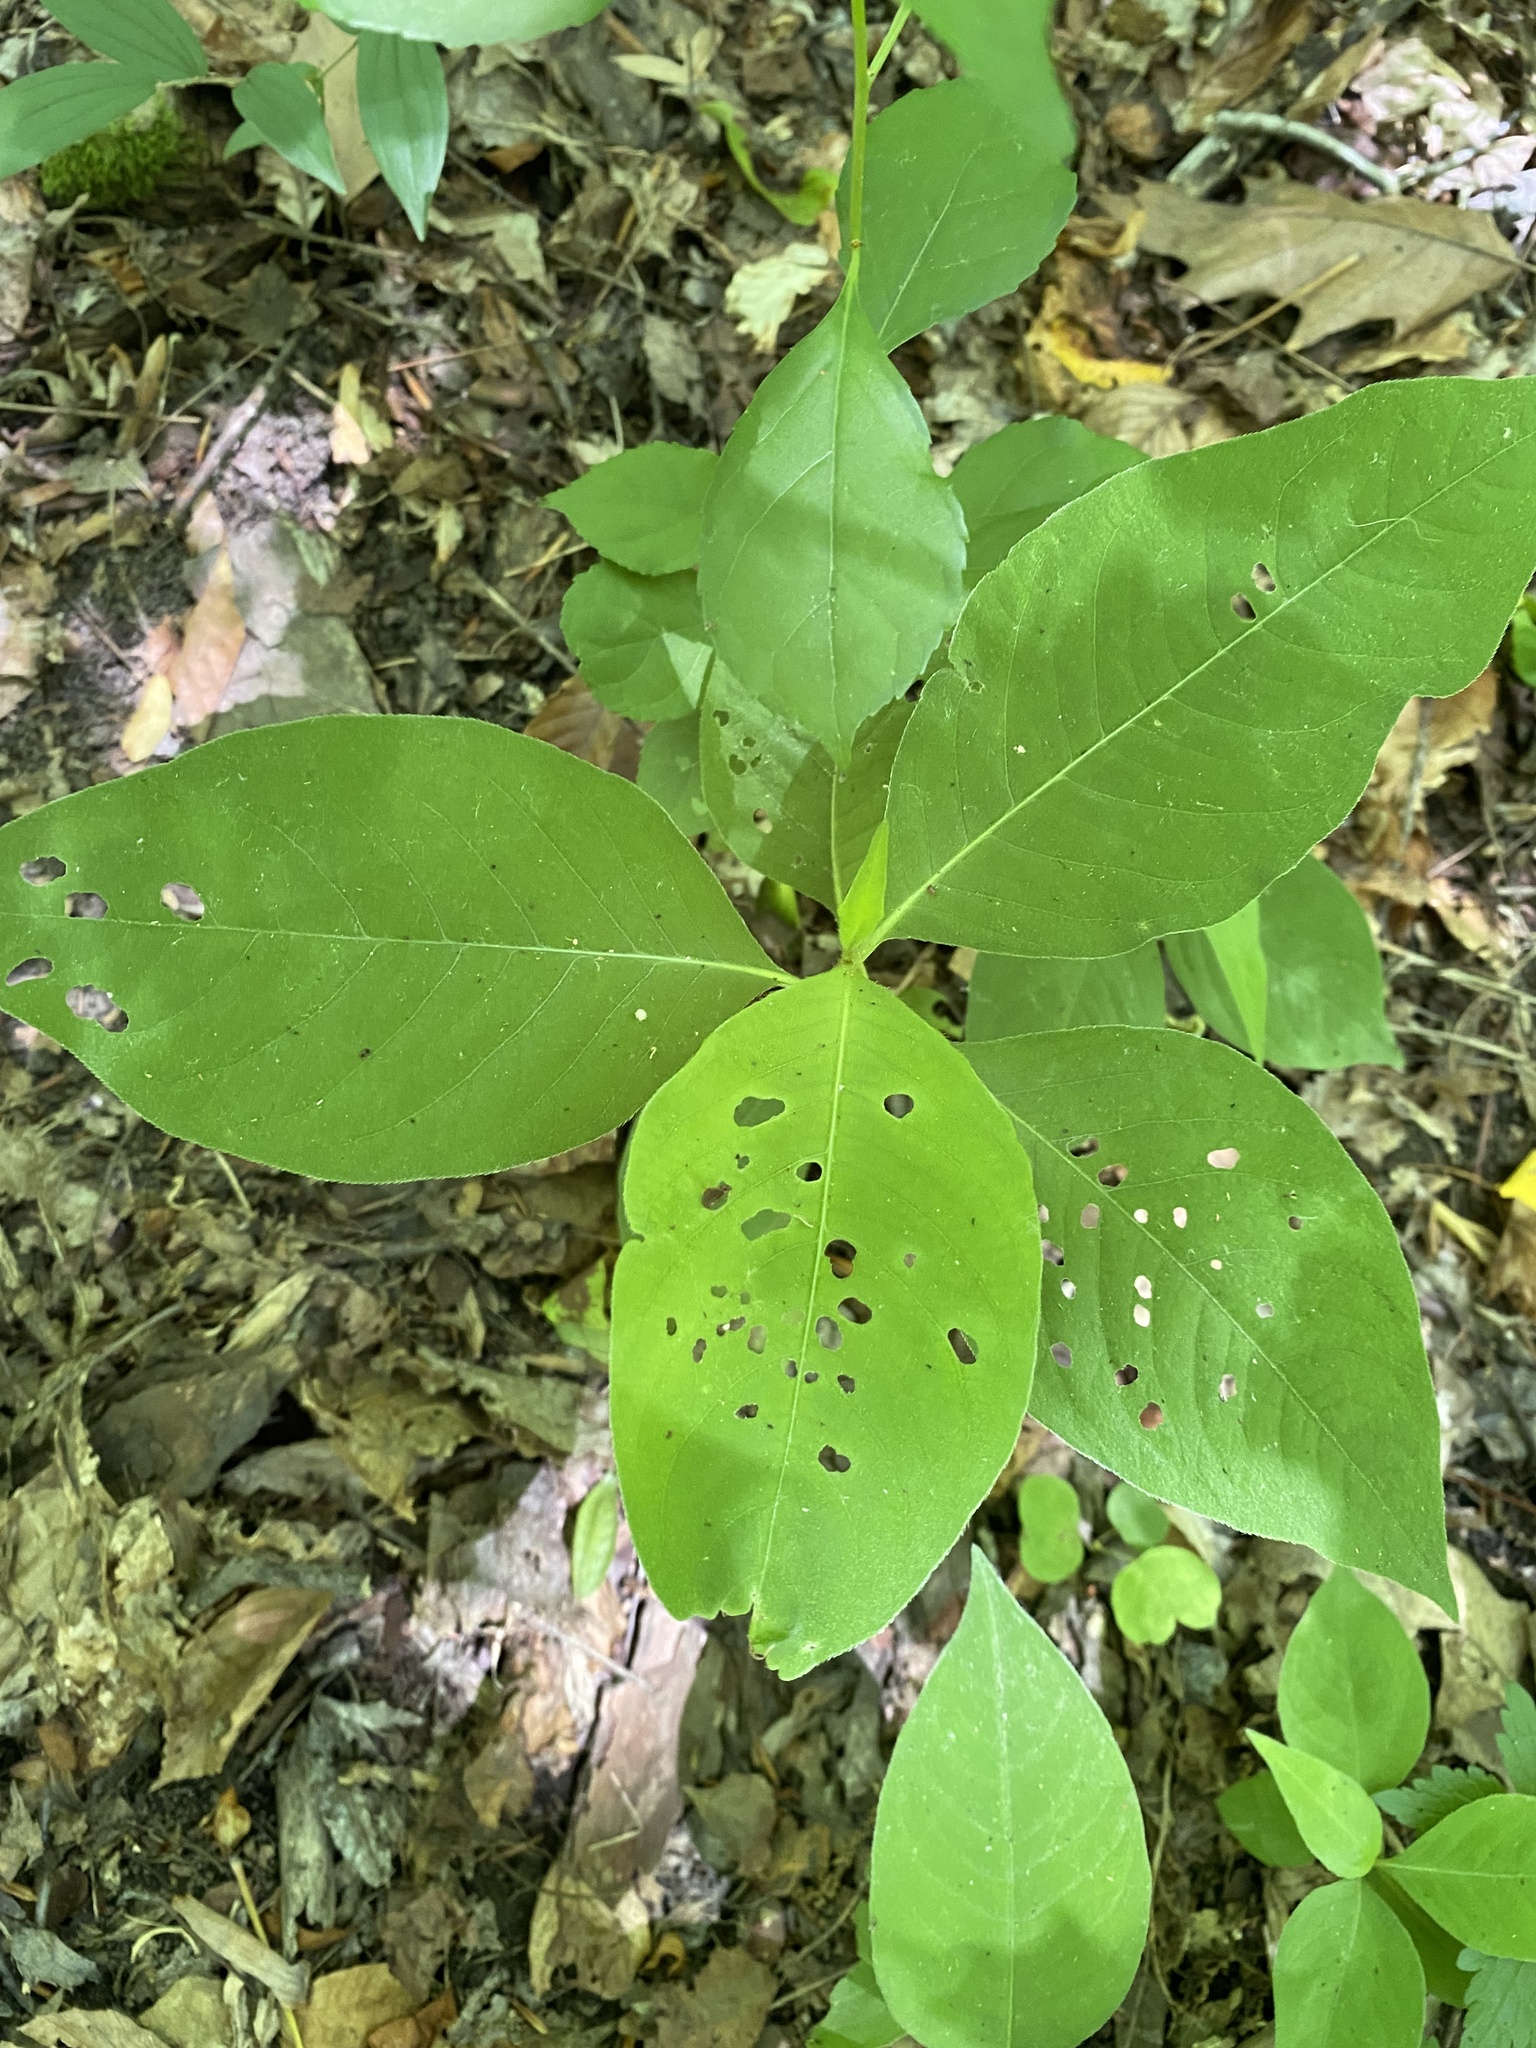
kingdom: Plantae
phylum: Tracheophyta
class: Magnoliopsida
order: Caryophyllales
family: Polygonaceae
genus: Persicaria
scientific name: Persicaria virginiana
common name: Jumpseed
